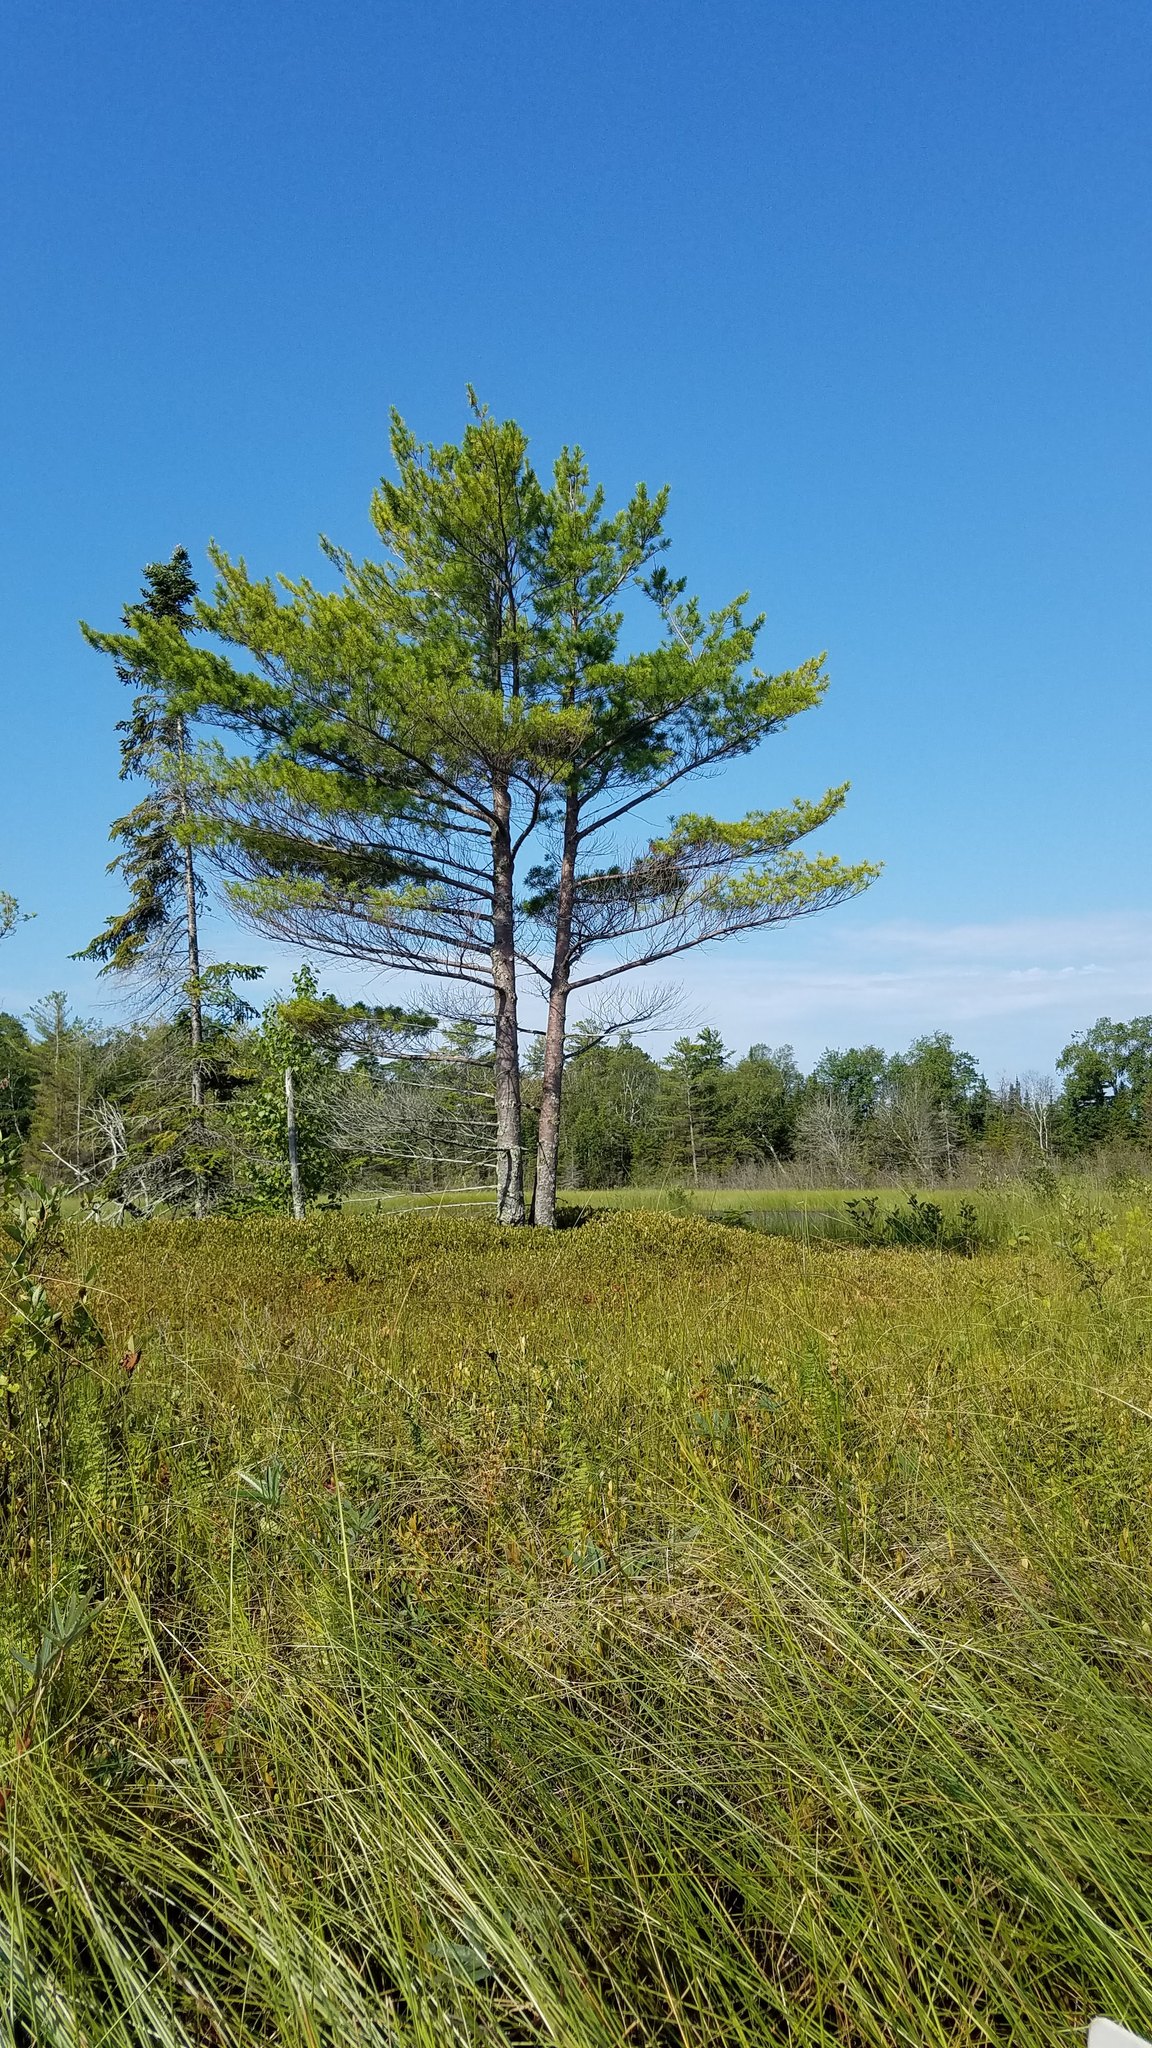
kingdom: Plantae
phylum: Tracheophyta
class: Pinopsida
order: Pinales
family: Pinaceae
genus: Pinus
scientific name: Pinus strobus
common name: Weymouth pine
